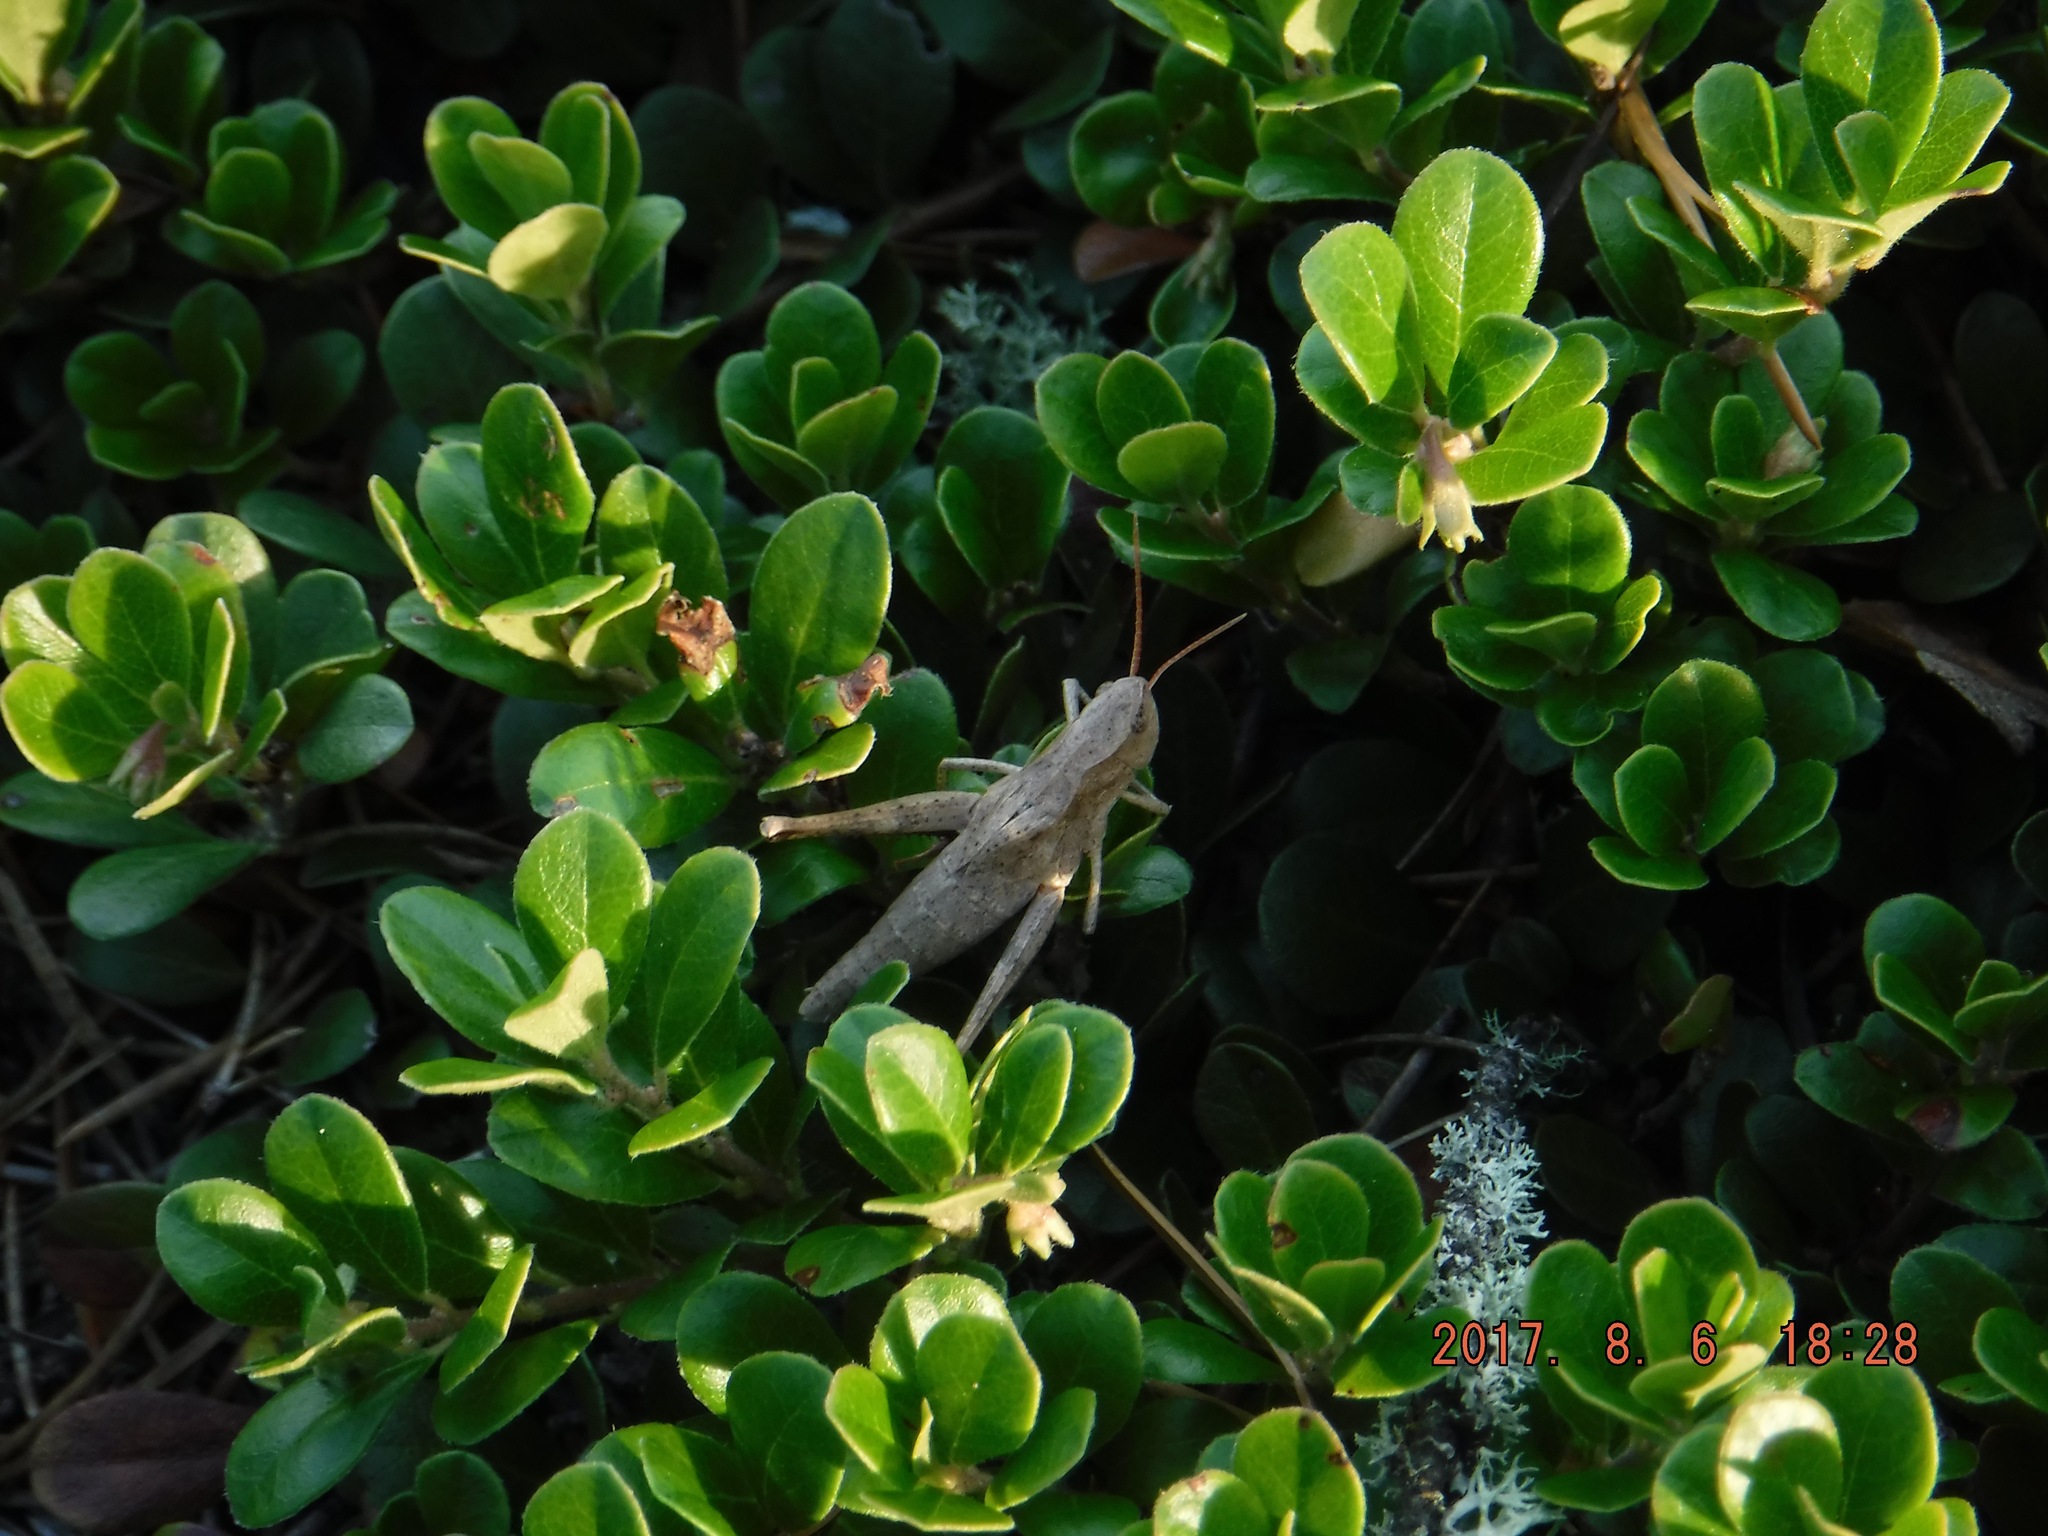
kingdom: Animalia
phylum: Arthropoda
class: Insecta
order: Orthoptera
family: Acrididae
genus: Chloealtis
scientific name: Chloealtis abdominalis
